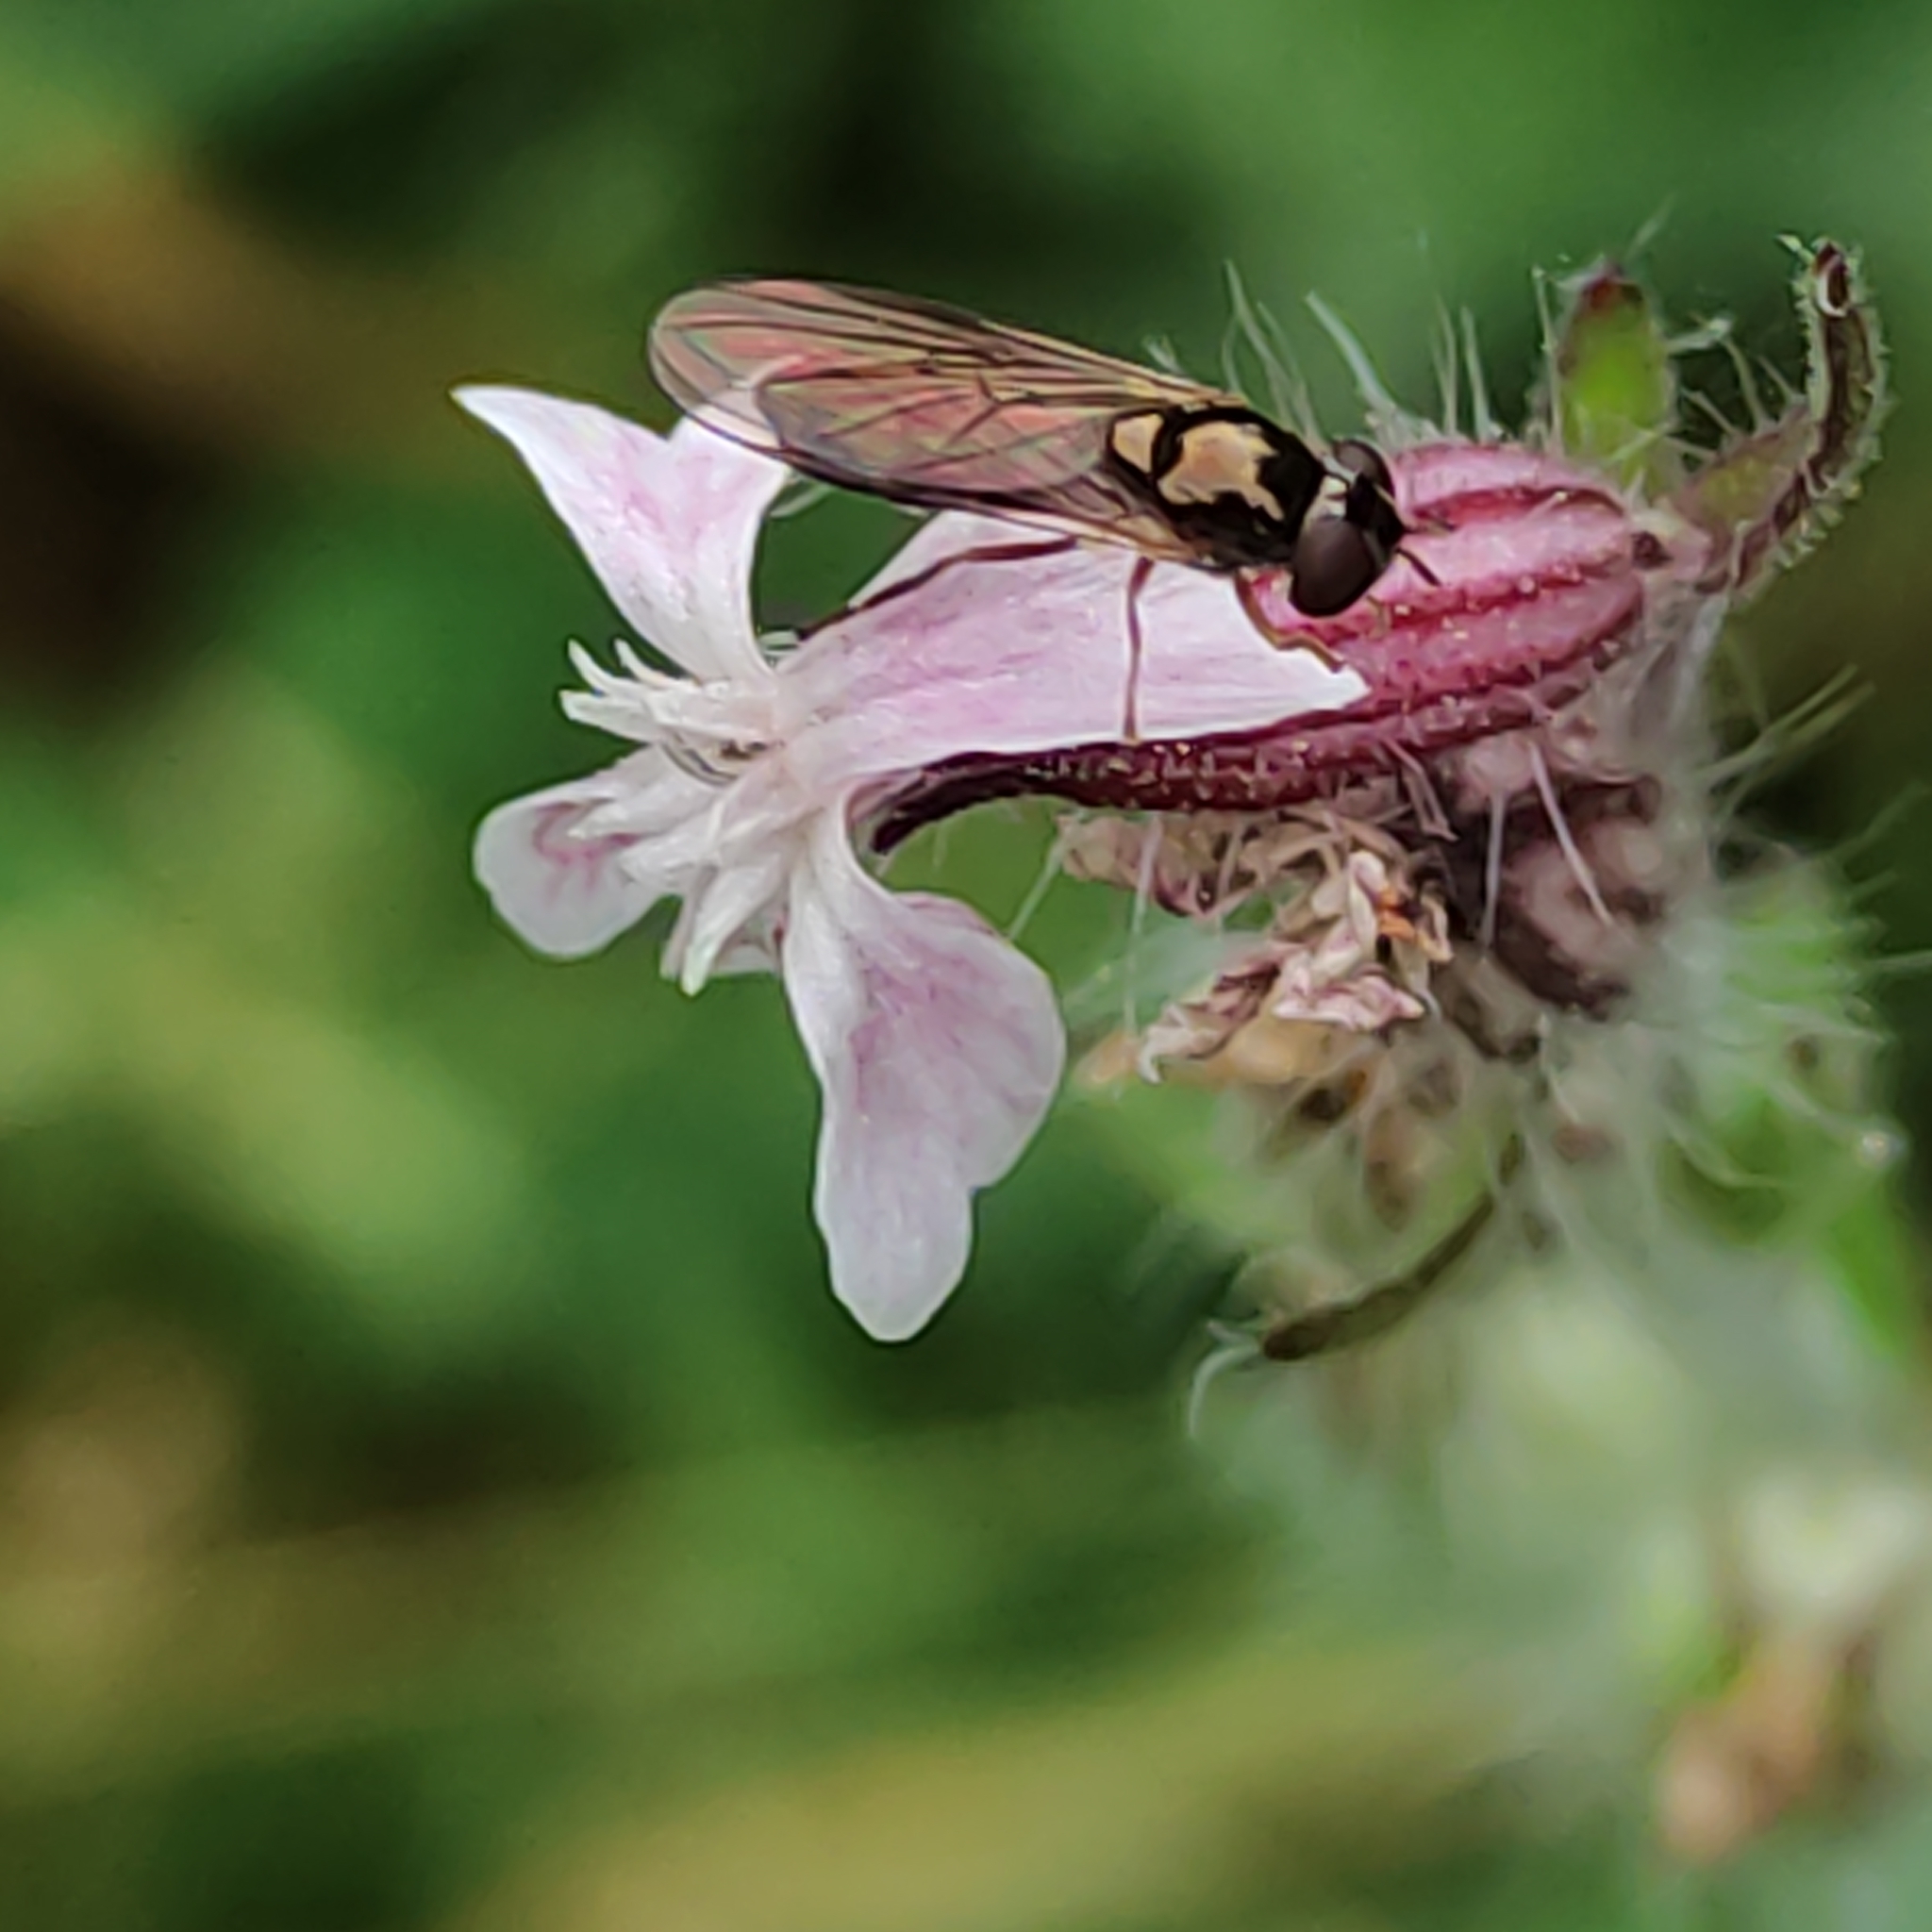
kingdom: Animalia
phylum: Arthropoda
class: Insecta
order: Diptera
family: Syrphidae
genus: Melanostoma
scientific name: Melanostoma fasciatum
